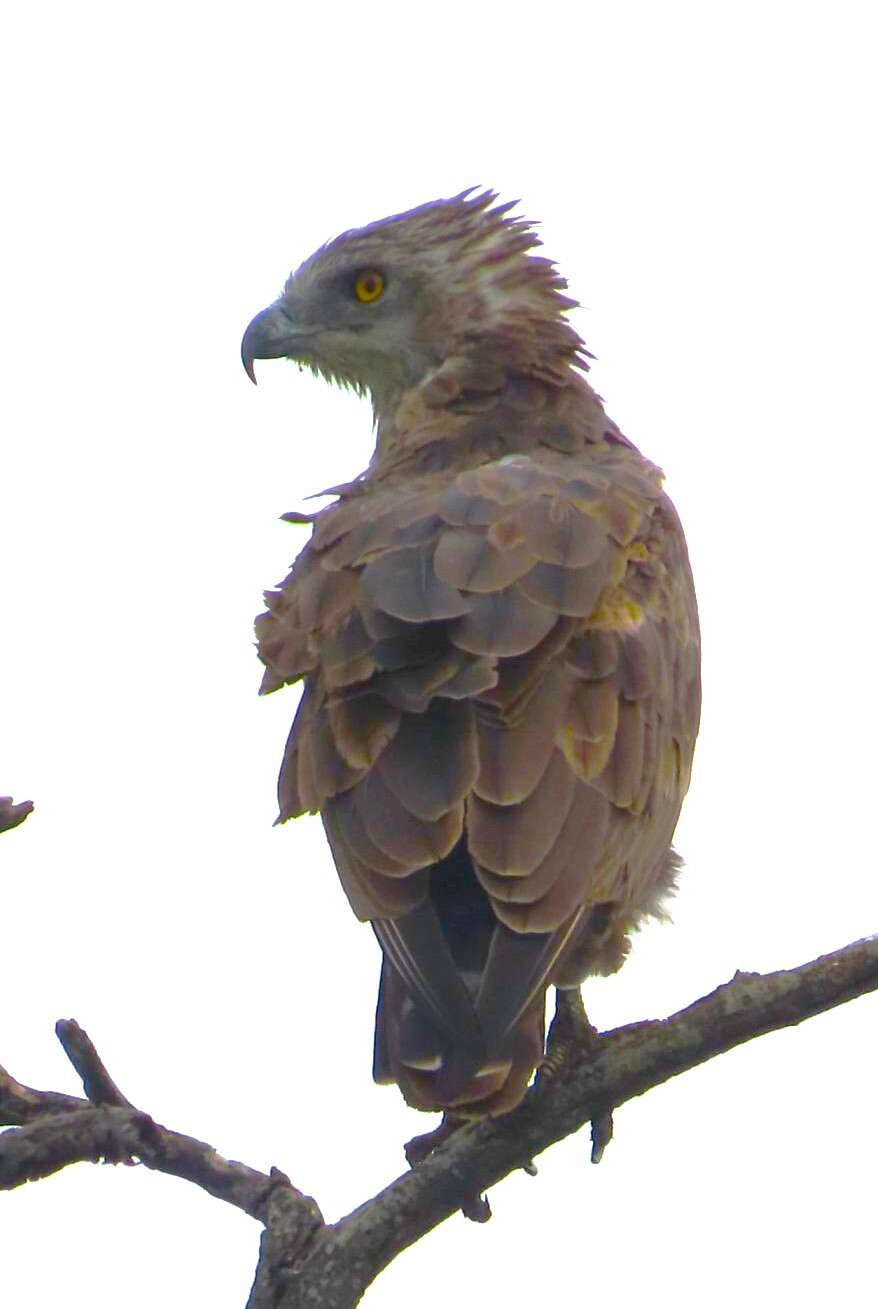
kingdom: Animalia
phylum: Chordata
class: Aves
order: Accipitriformes
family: Accipitridae
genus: Circaetus
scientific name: Circaetus cinereus
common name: Brown snake eagle
